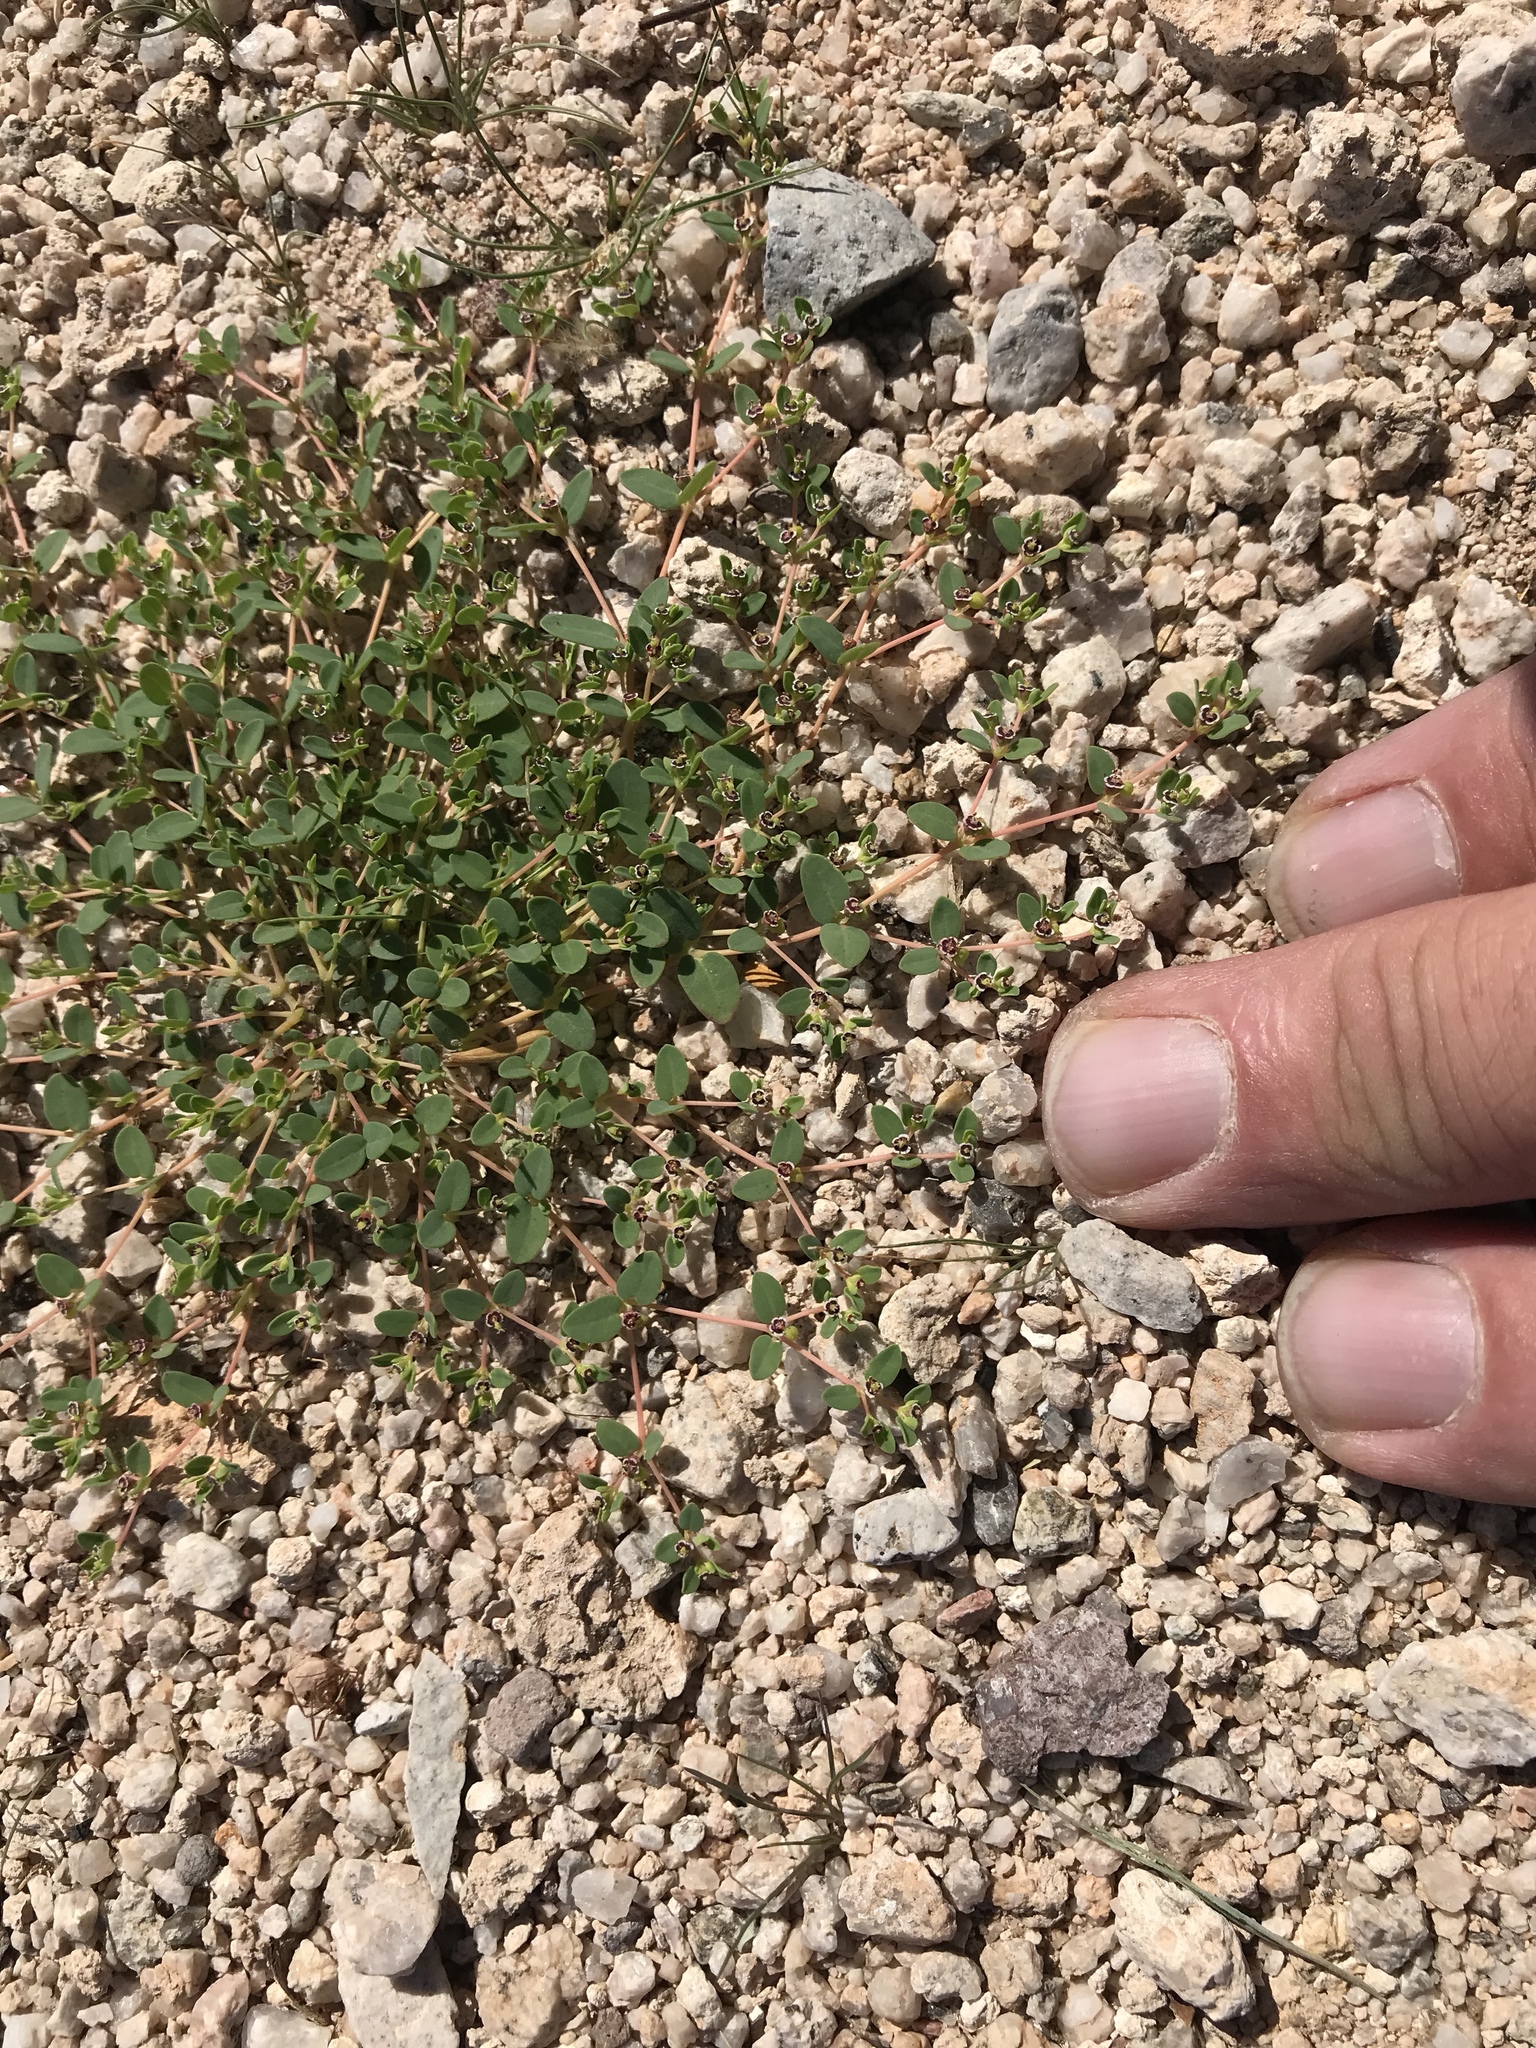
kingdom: Plantae
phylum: Tracheophyta
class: Magnoliopsida
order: Malpighiales
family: Euphorbiaceae
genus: Euphorbia
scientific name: Euphorbia polycarpa
